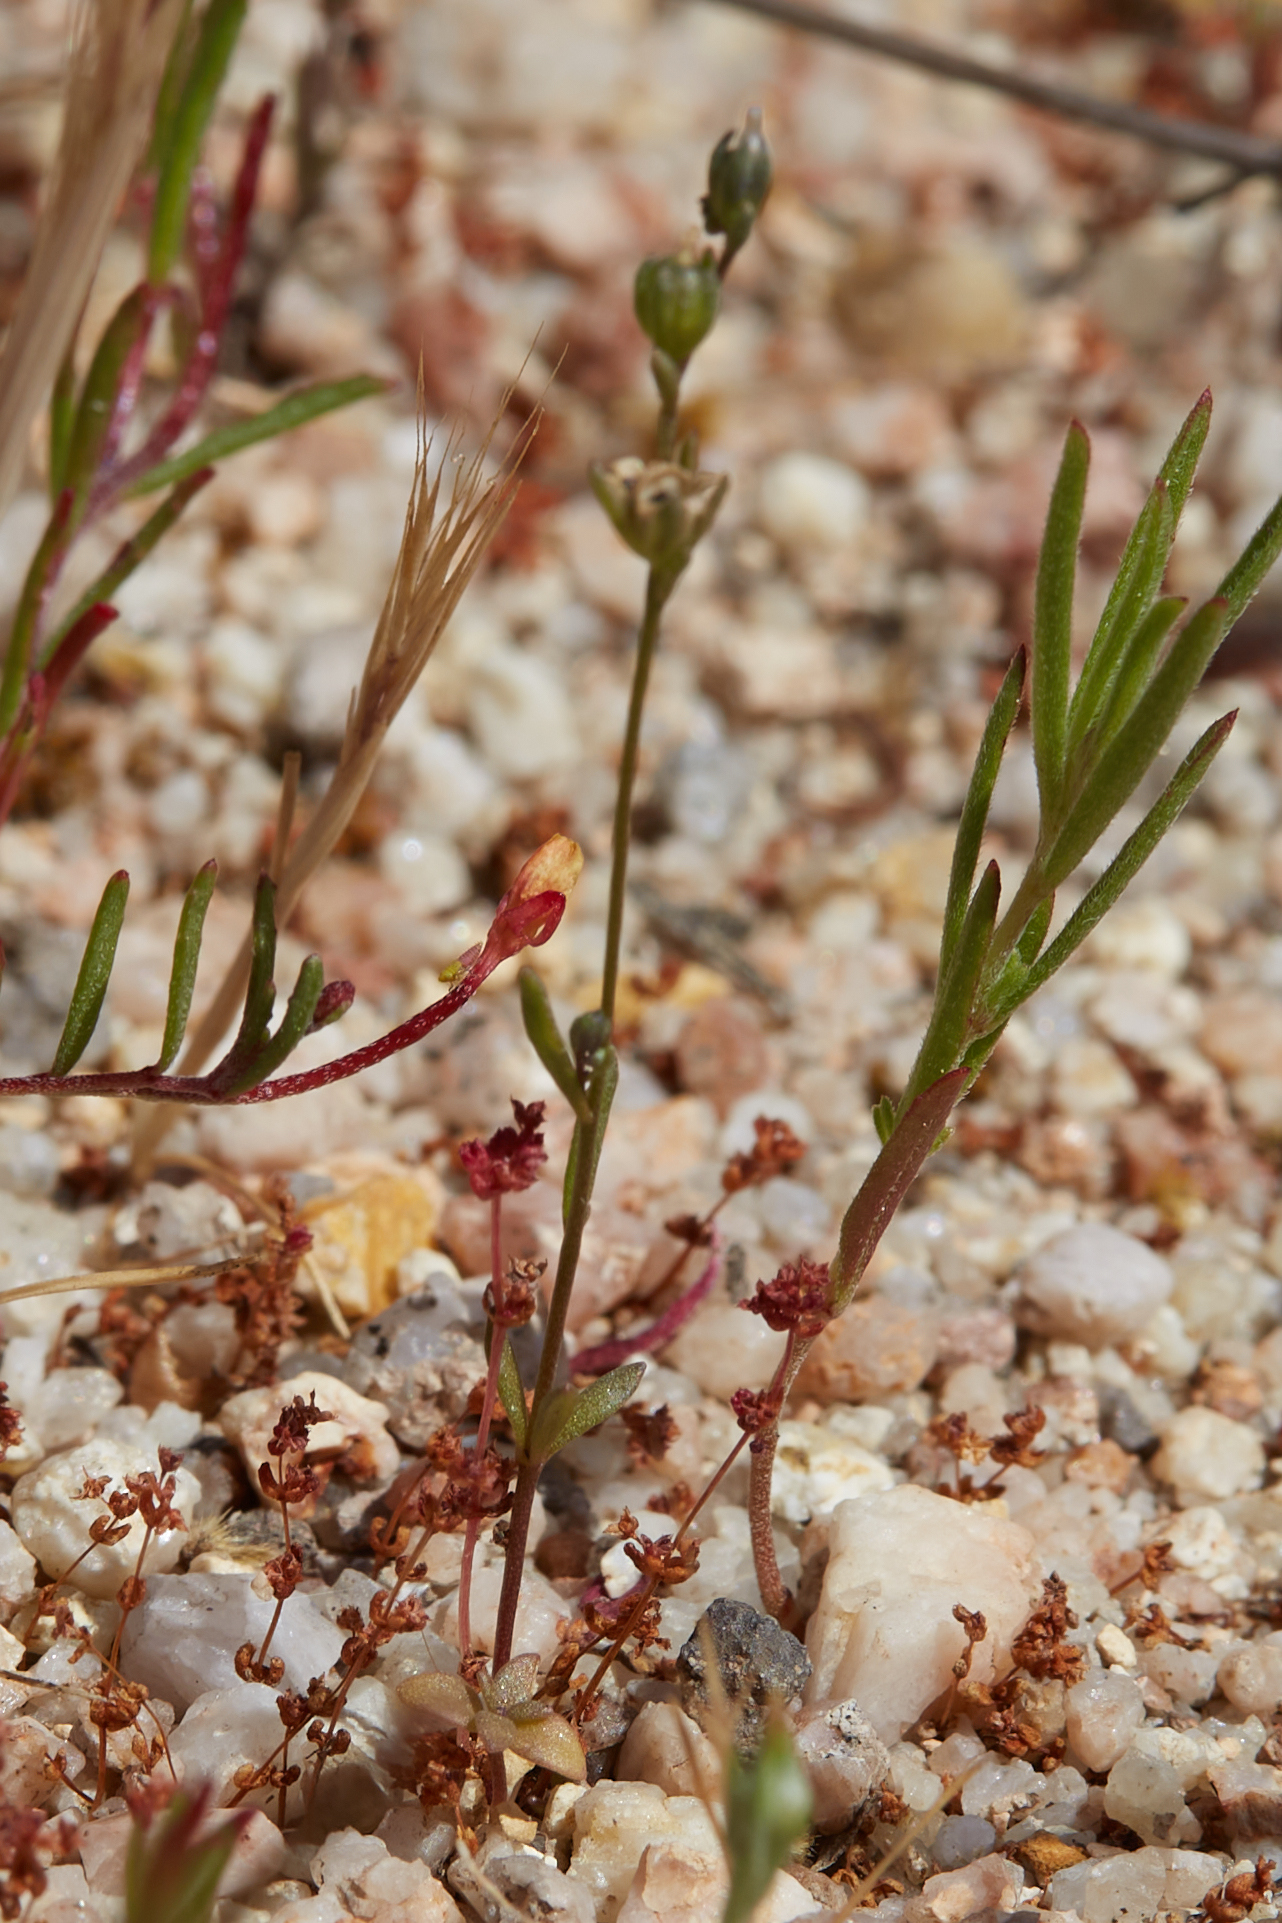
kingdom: Plantae
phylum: Tracheophyta
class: Magnoliopsida
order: Lamiales
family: Plantaginaceae
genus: Nuttallanthus
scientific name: Nuttallanthus texanus
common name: Texas toadflax
